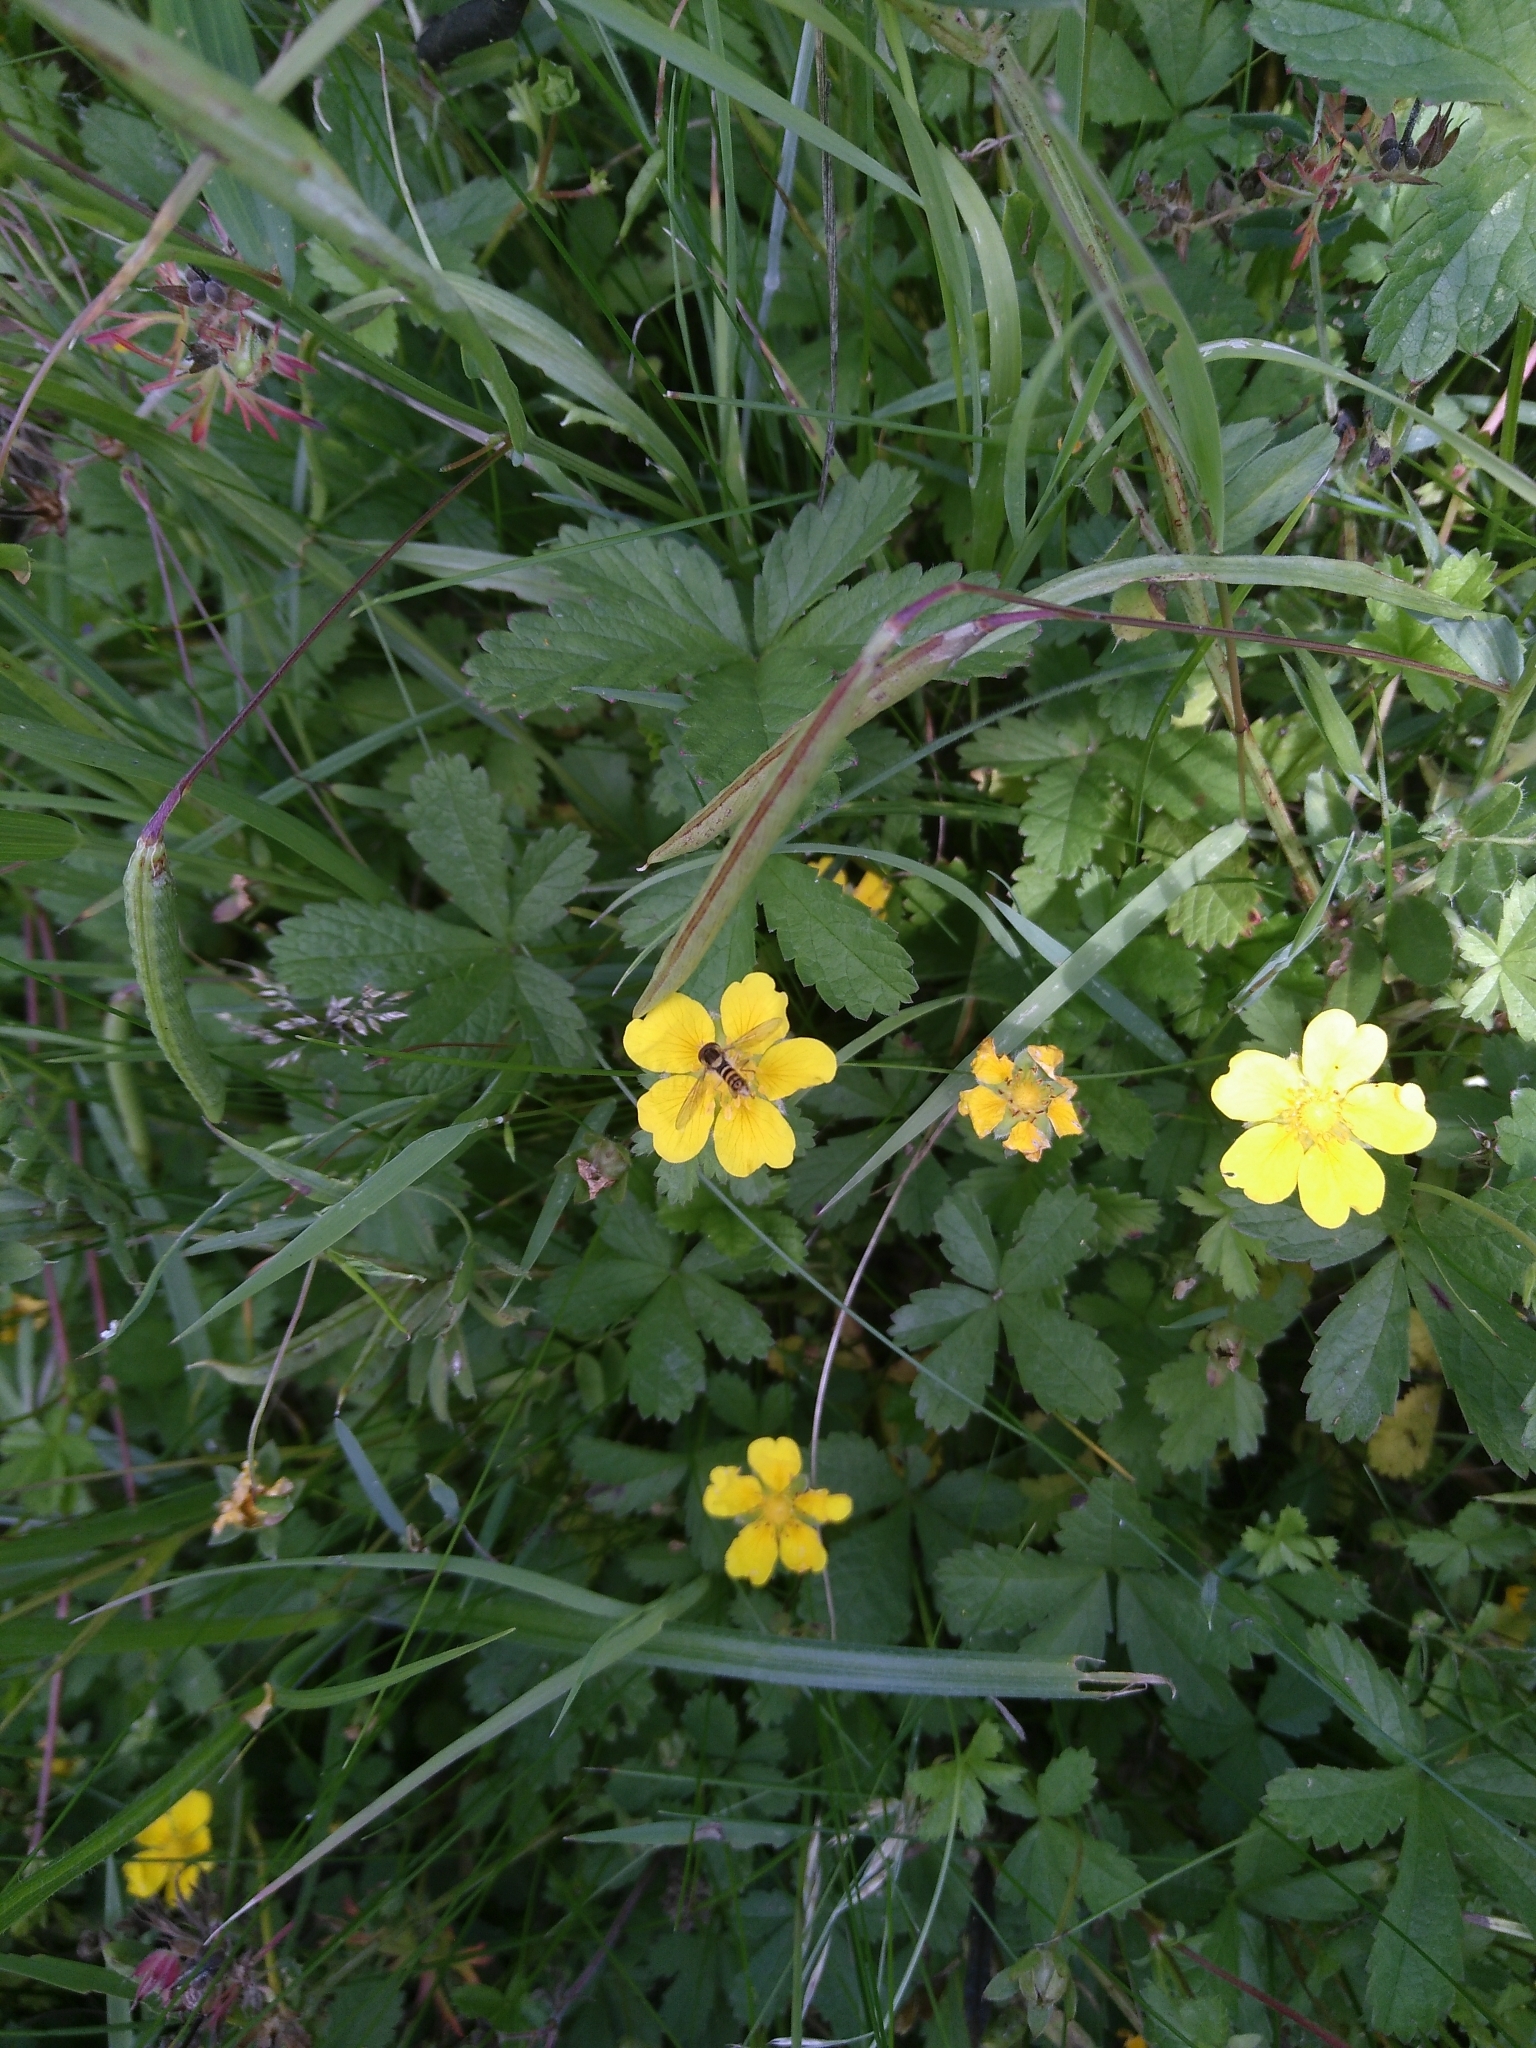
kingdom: Animalia
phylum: Arthropoda
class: Insecta
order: Diptera
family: Syrphidae
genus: Sphaerophoria
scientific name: Sphaerophoria
